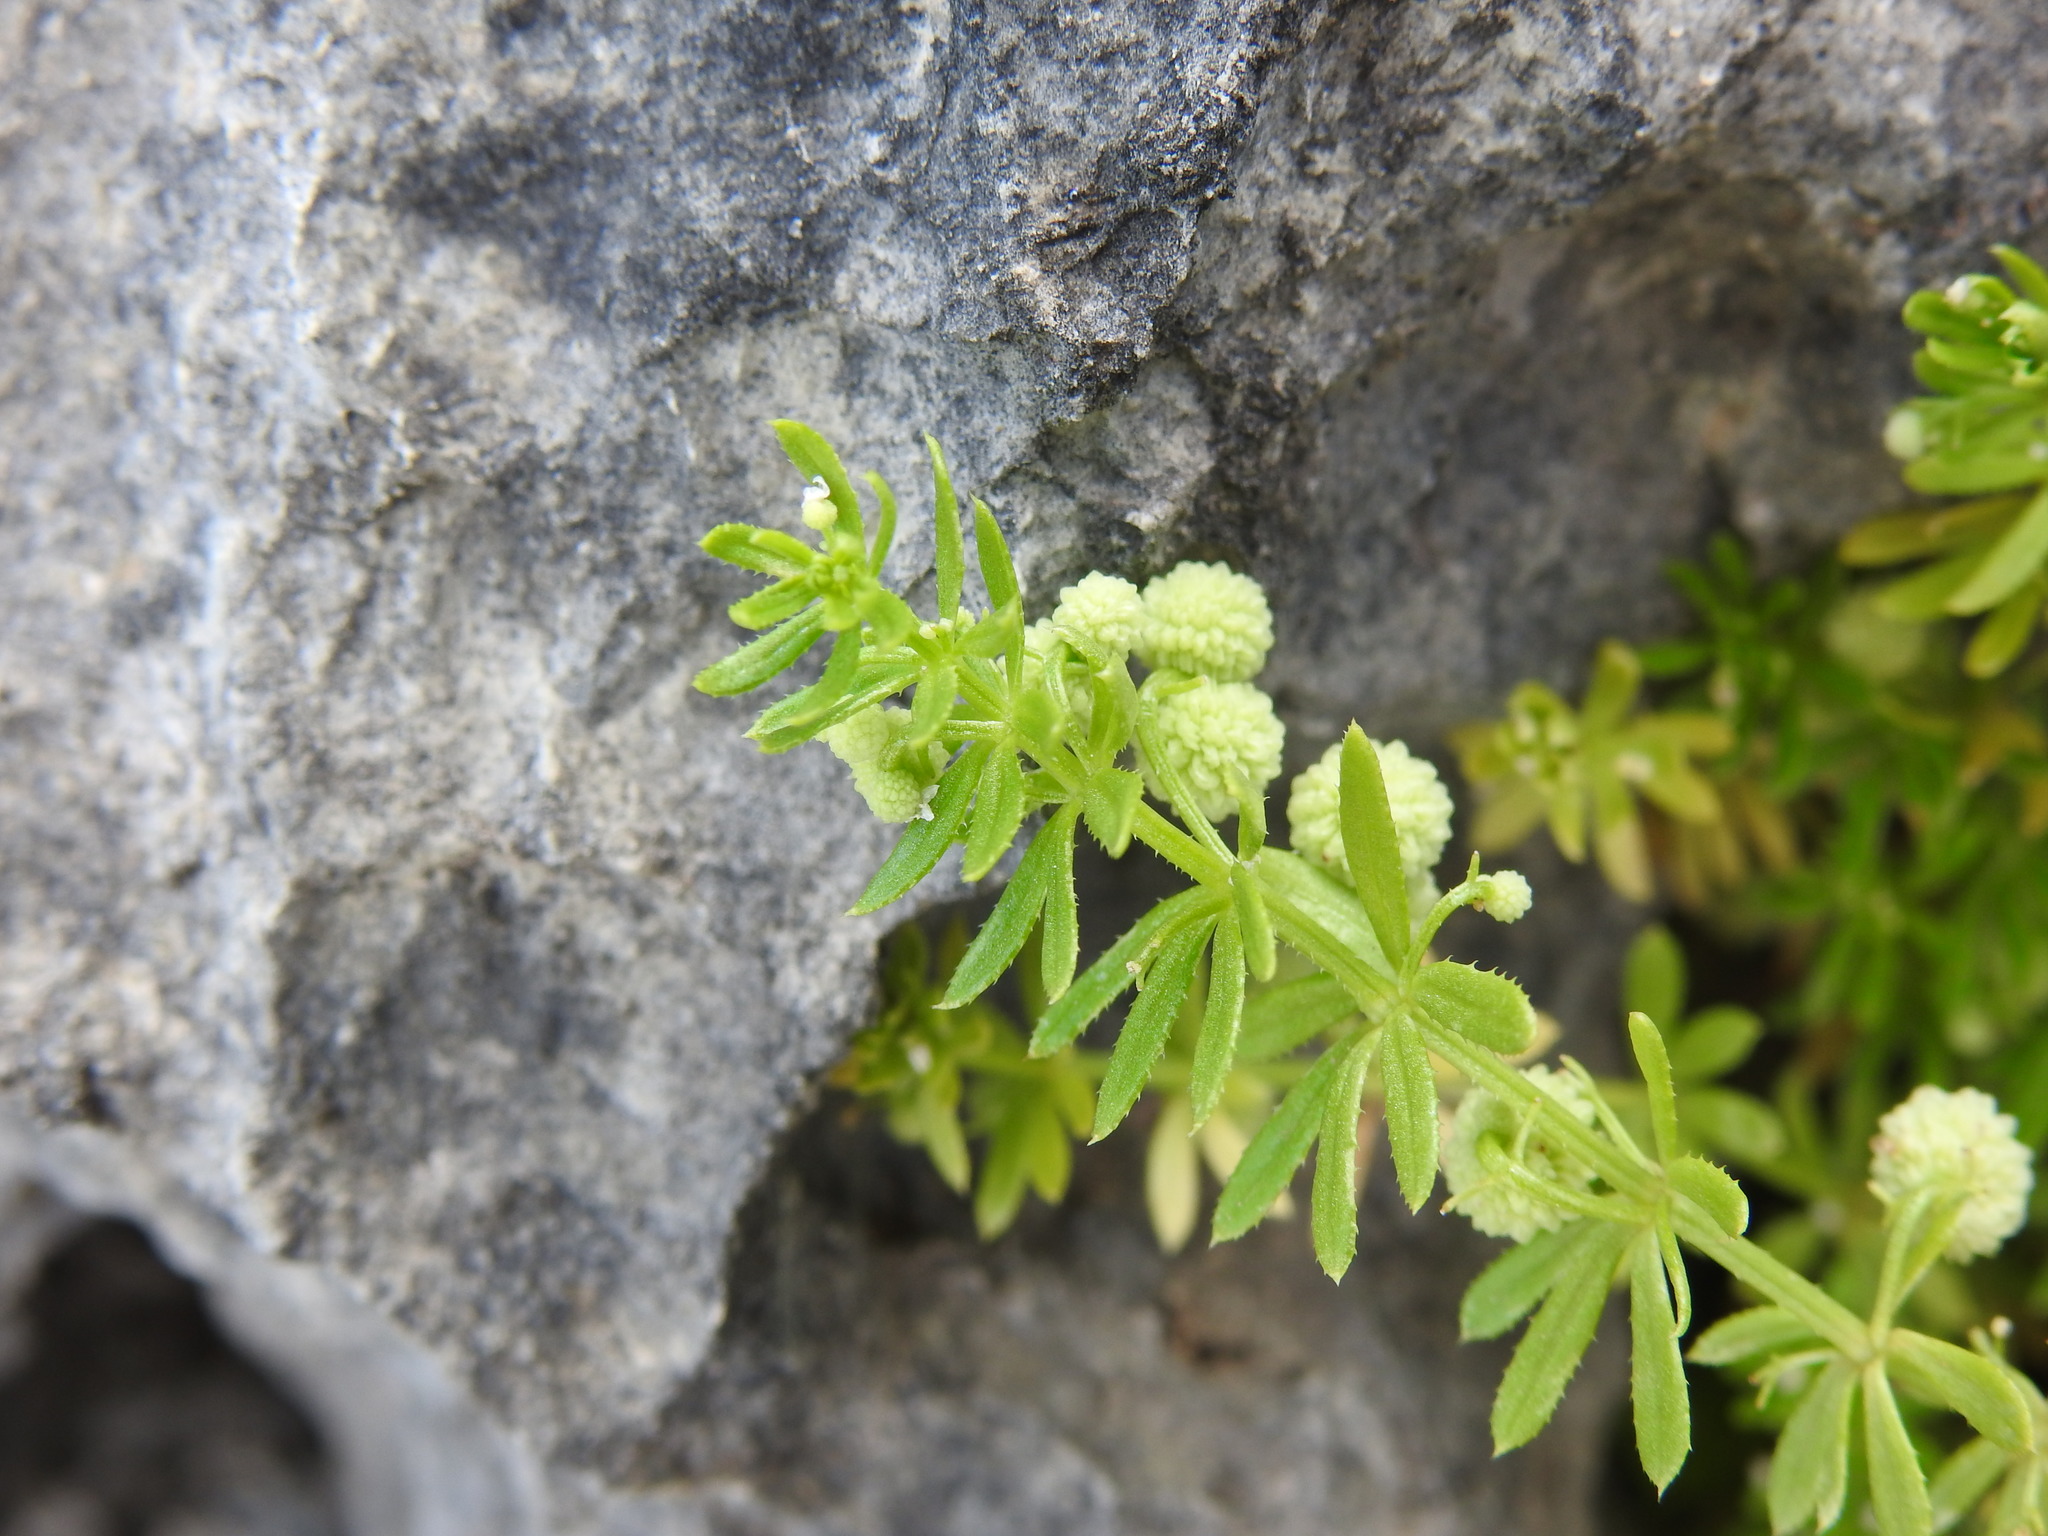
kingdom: Plantae
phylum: Tracheophyta
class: Magnoliopsida
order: Gentianales
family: Rubiaceae
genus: Galium
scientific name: Galium verrucosum
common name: Warty bedstraw
